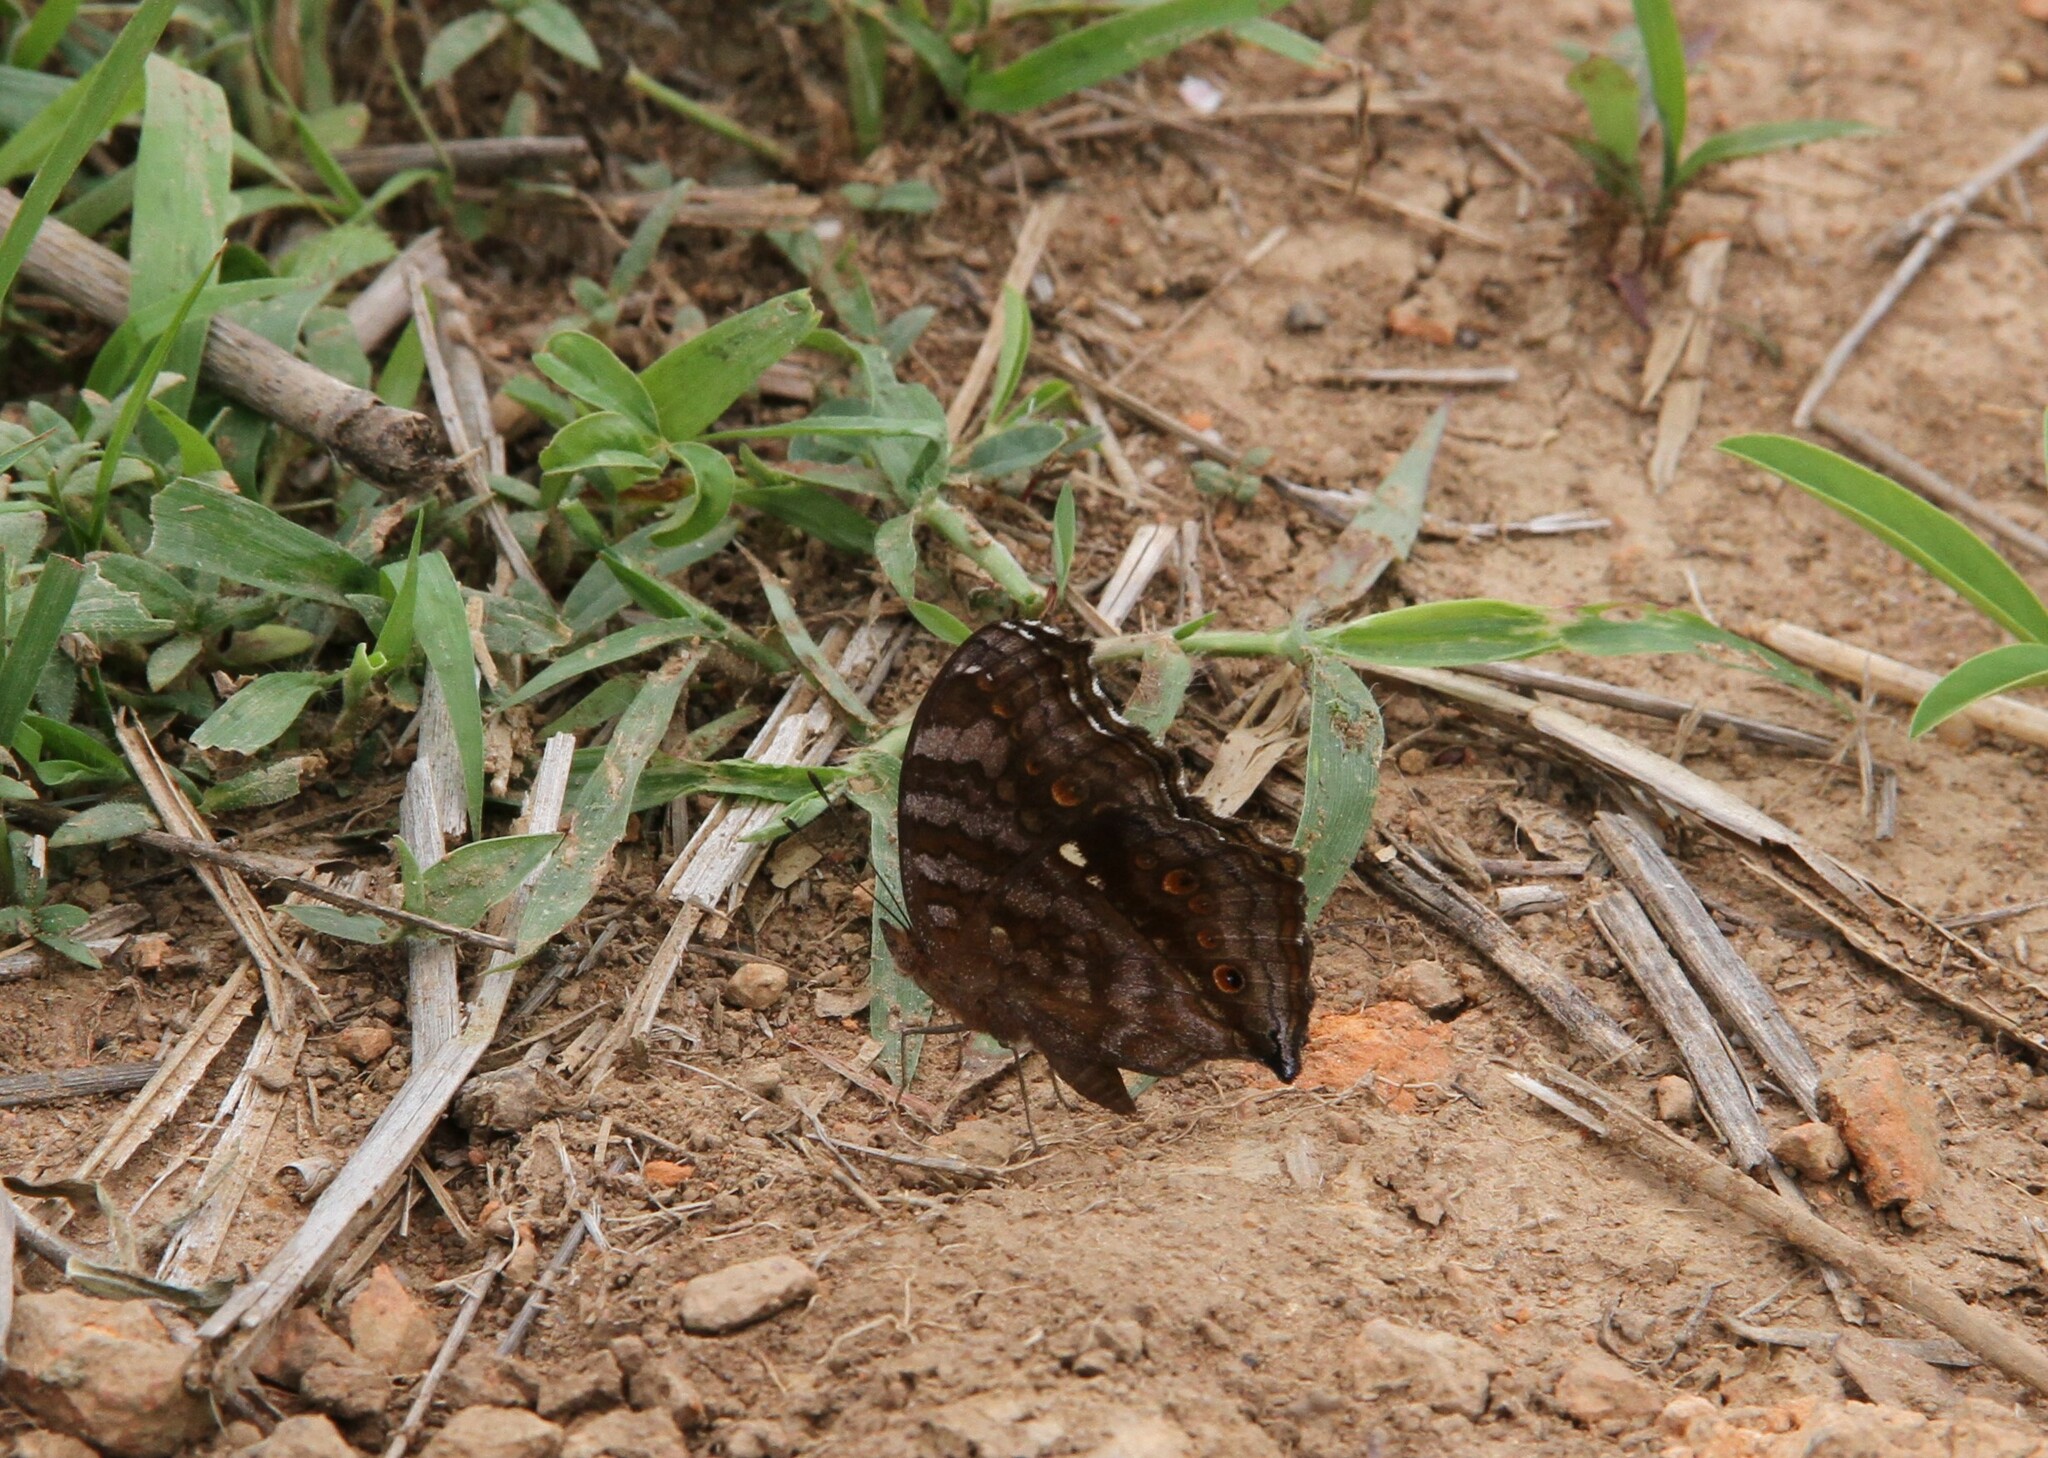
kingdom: Animalia
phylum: Arthropoda
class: Insecta
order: Lepidoptera
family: Nymphalidae
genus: Junonia
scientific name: Junonia chorimene
